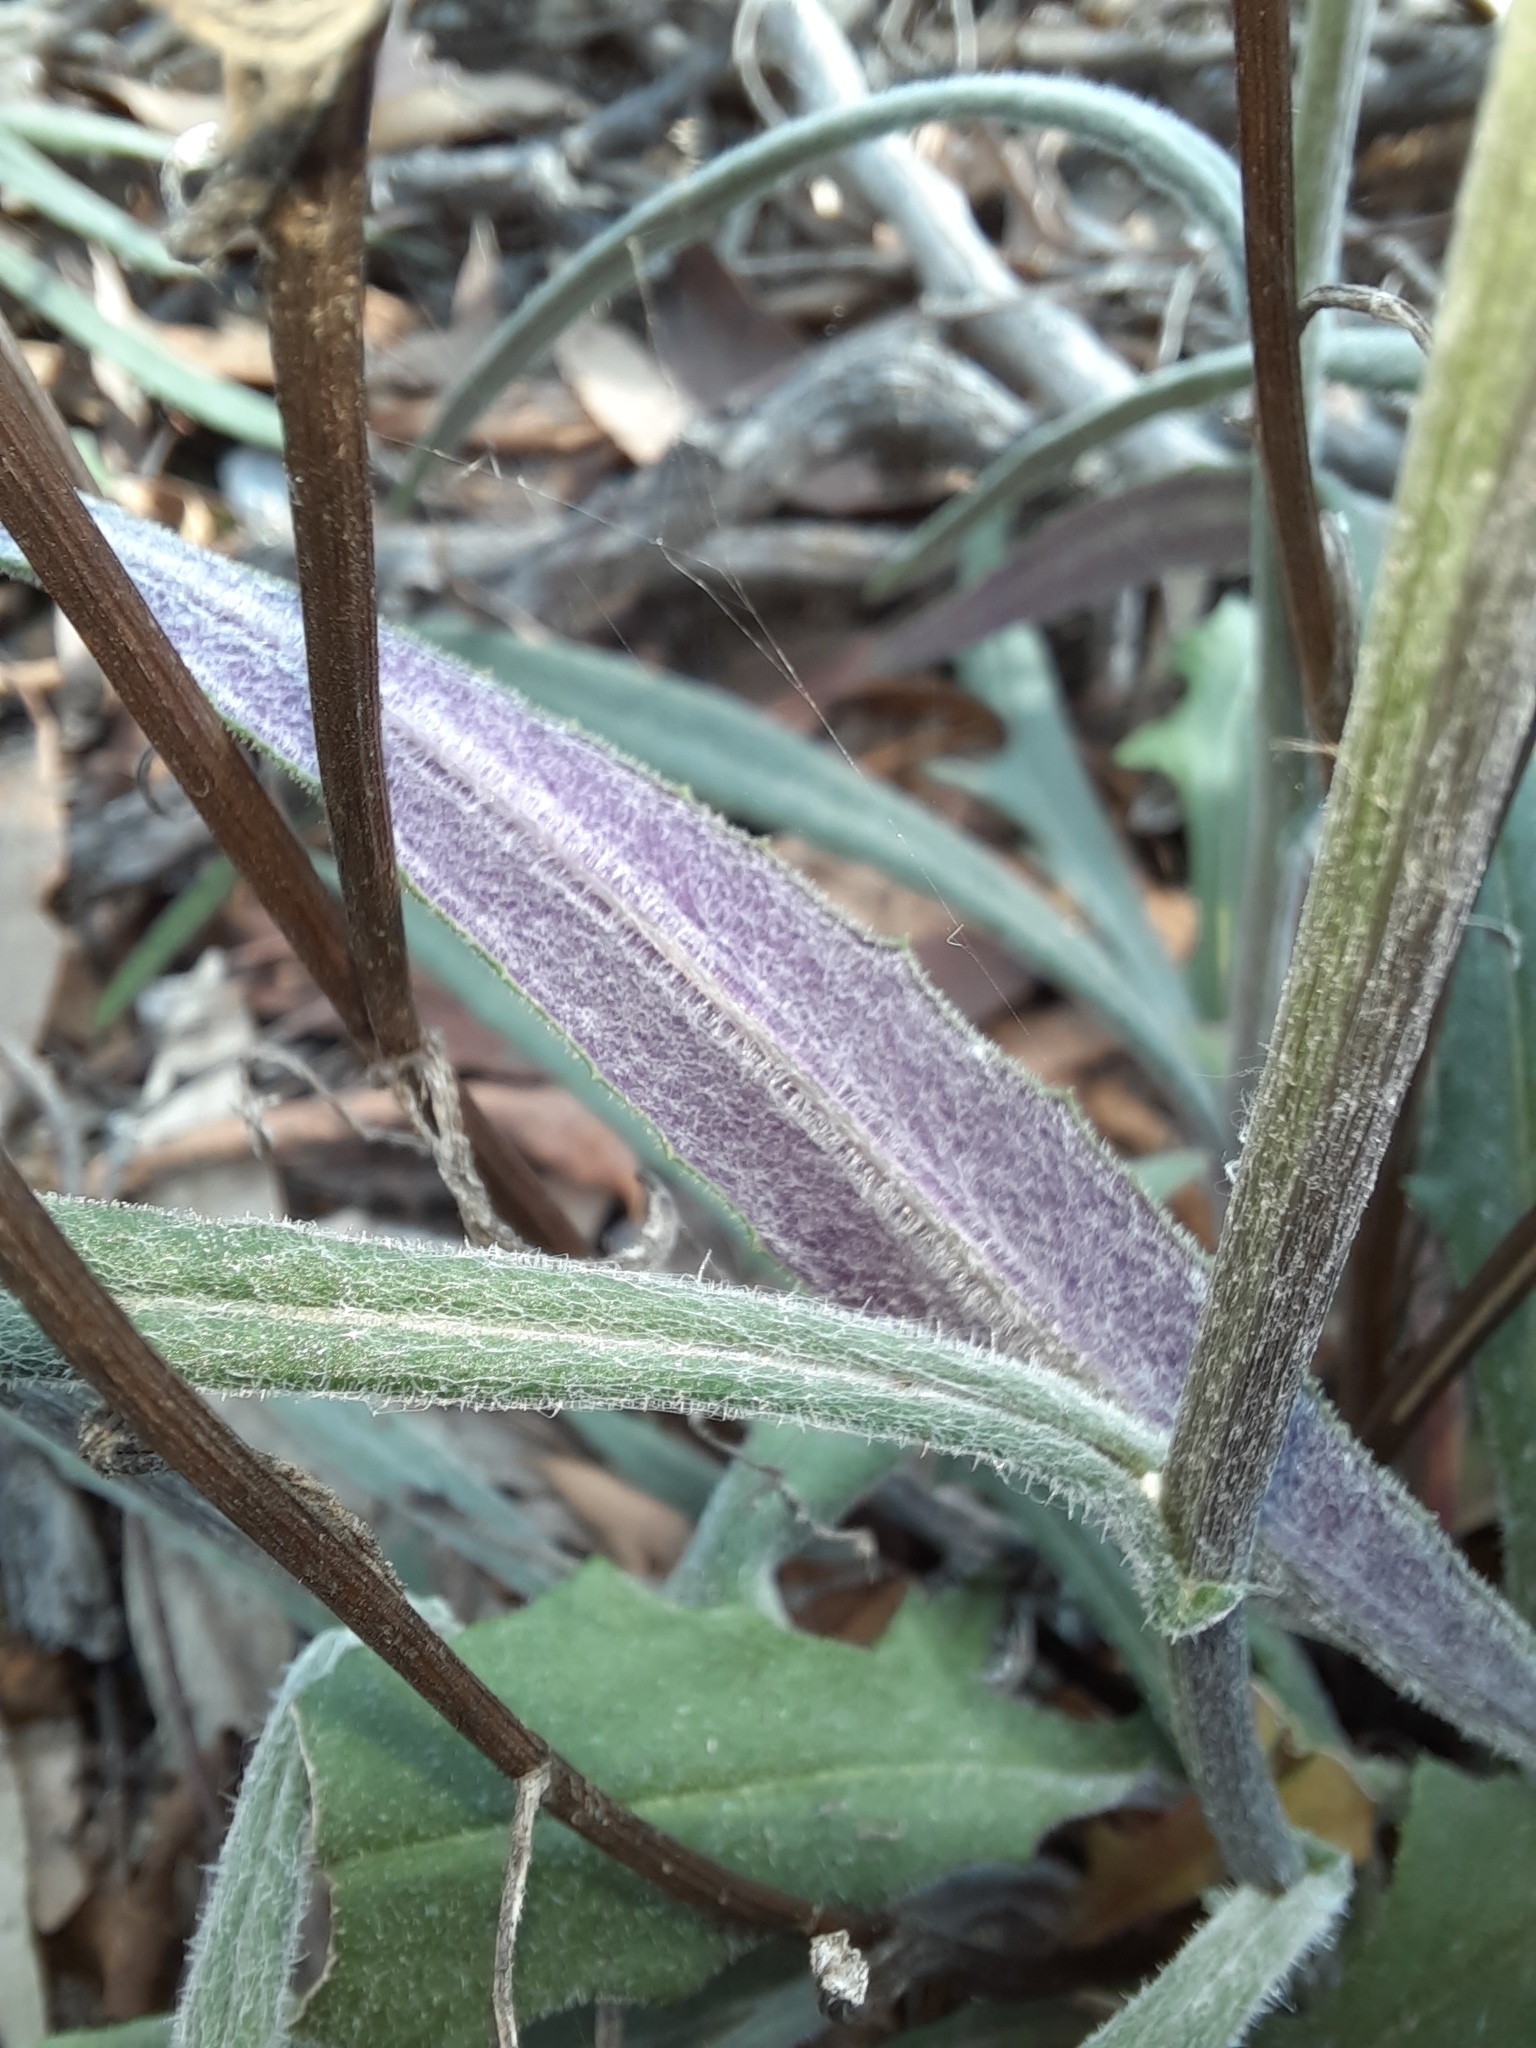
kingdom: Plantae
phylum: Tracheophyta
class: Magnoliopsida
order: Asterales
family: Asteraceae
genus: Senecio
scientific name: Senecio phelleus
